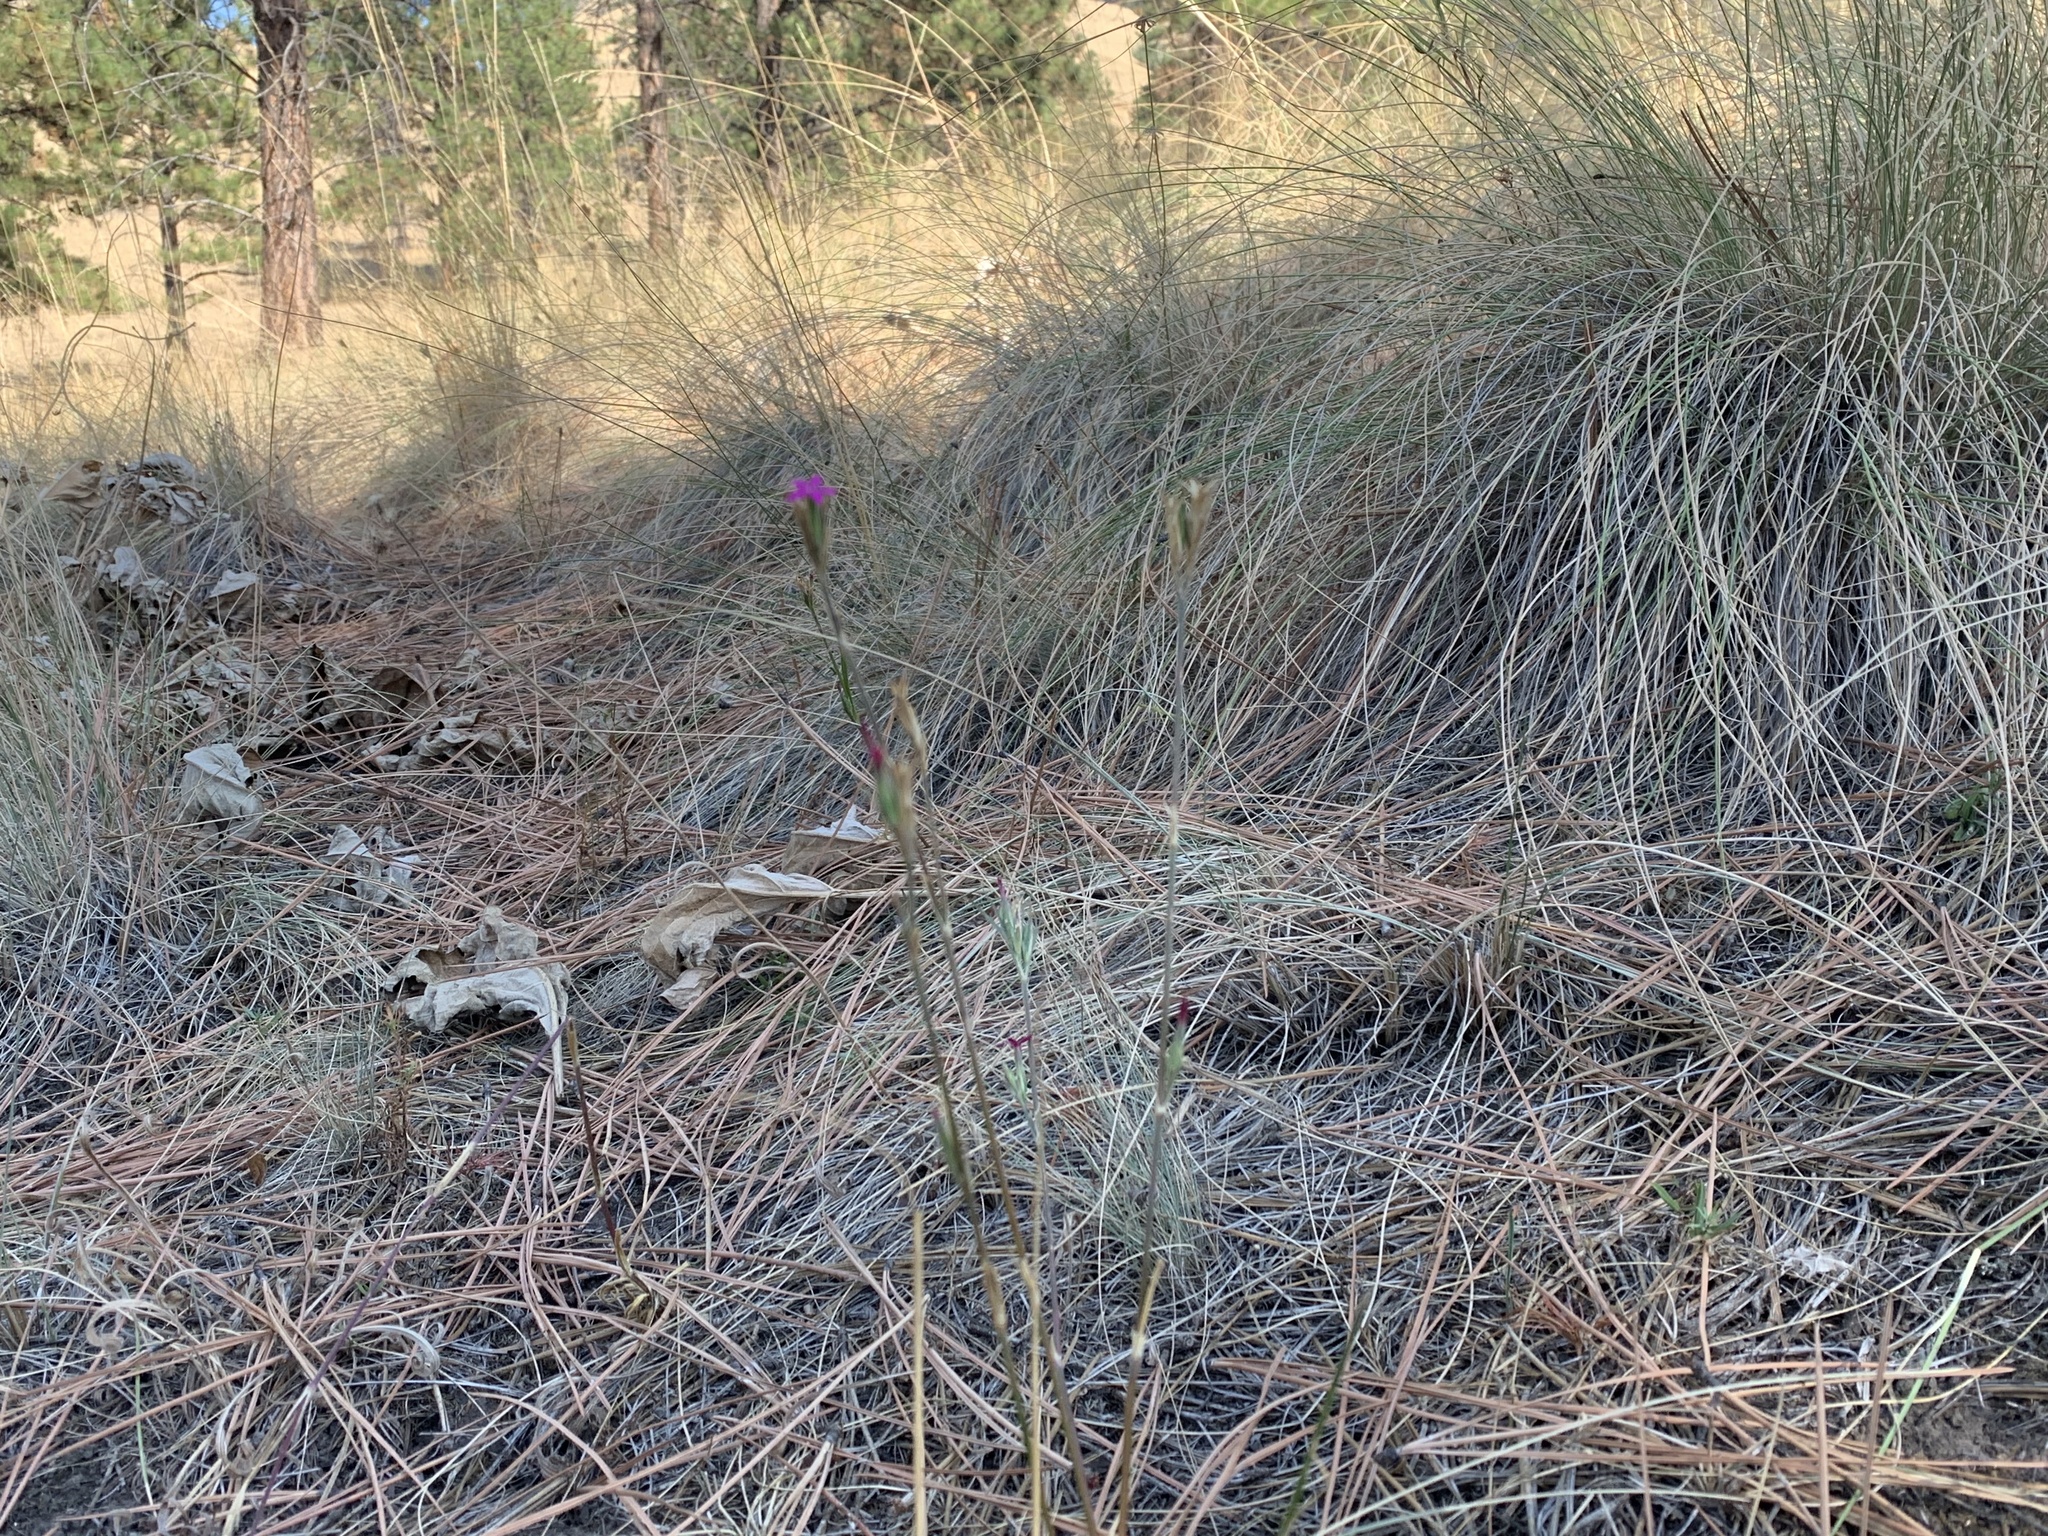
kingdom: Plantae
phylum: Tracheophyta
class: Magnoliopsida
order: Caryophyllales
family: Caryophyllaceae
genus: Dianthus
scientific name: Dianthus armeria
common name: Deptford pink
